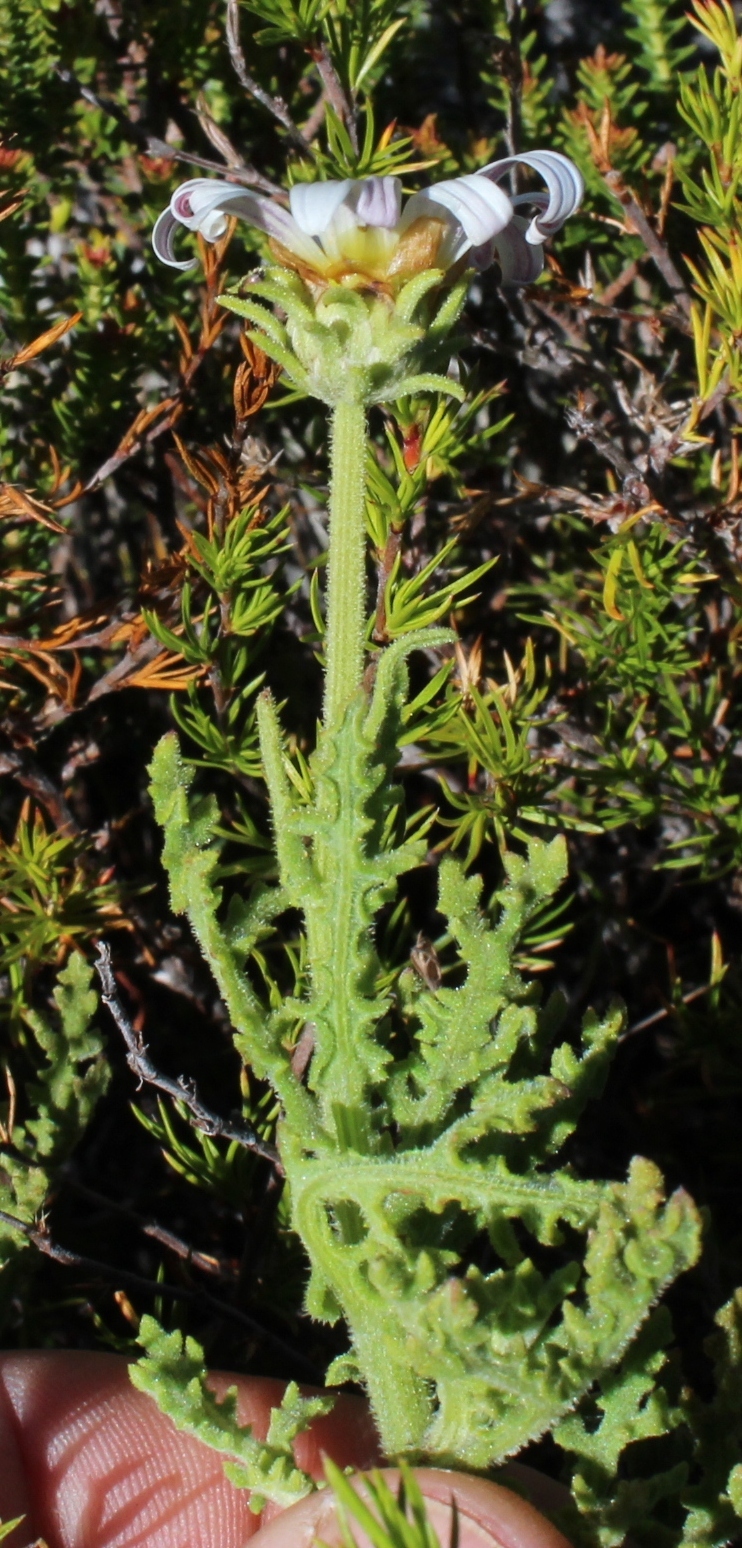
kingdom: Plantae
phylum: Tracheophyta
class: Magnoliopsida
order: Asterales
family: Asteraceae
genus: Arctotis
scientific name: Arctotis aspera
